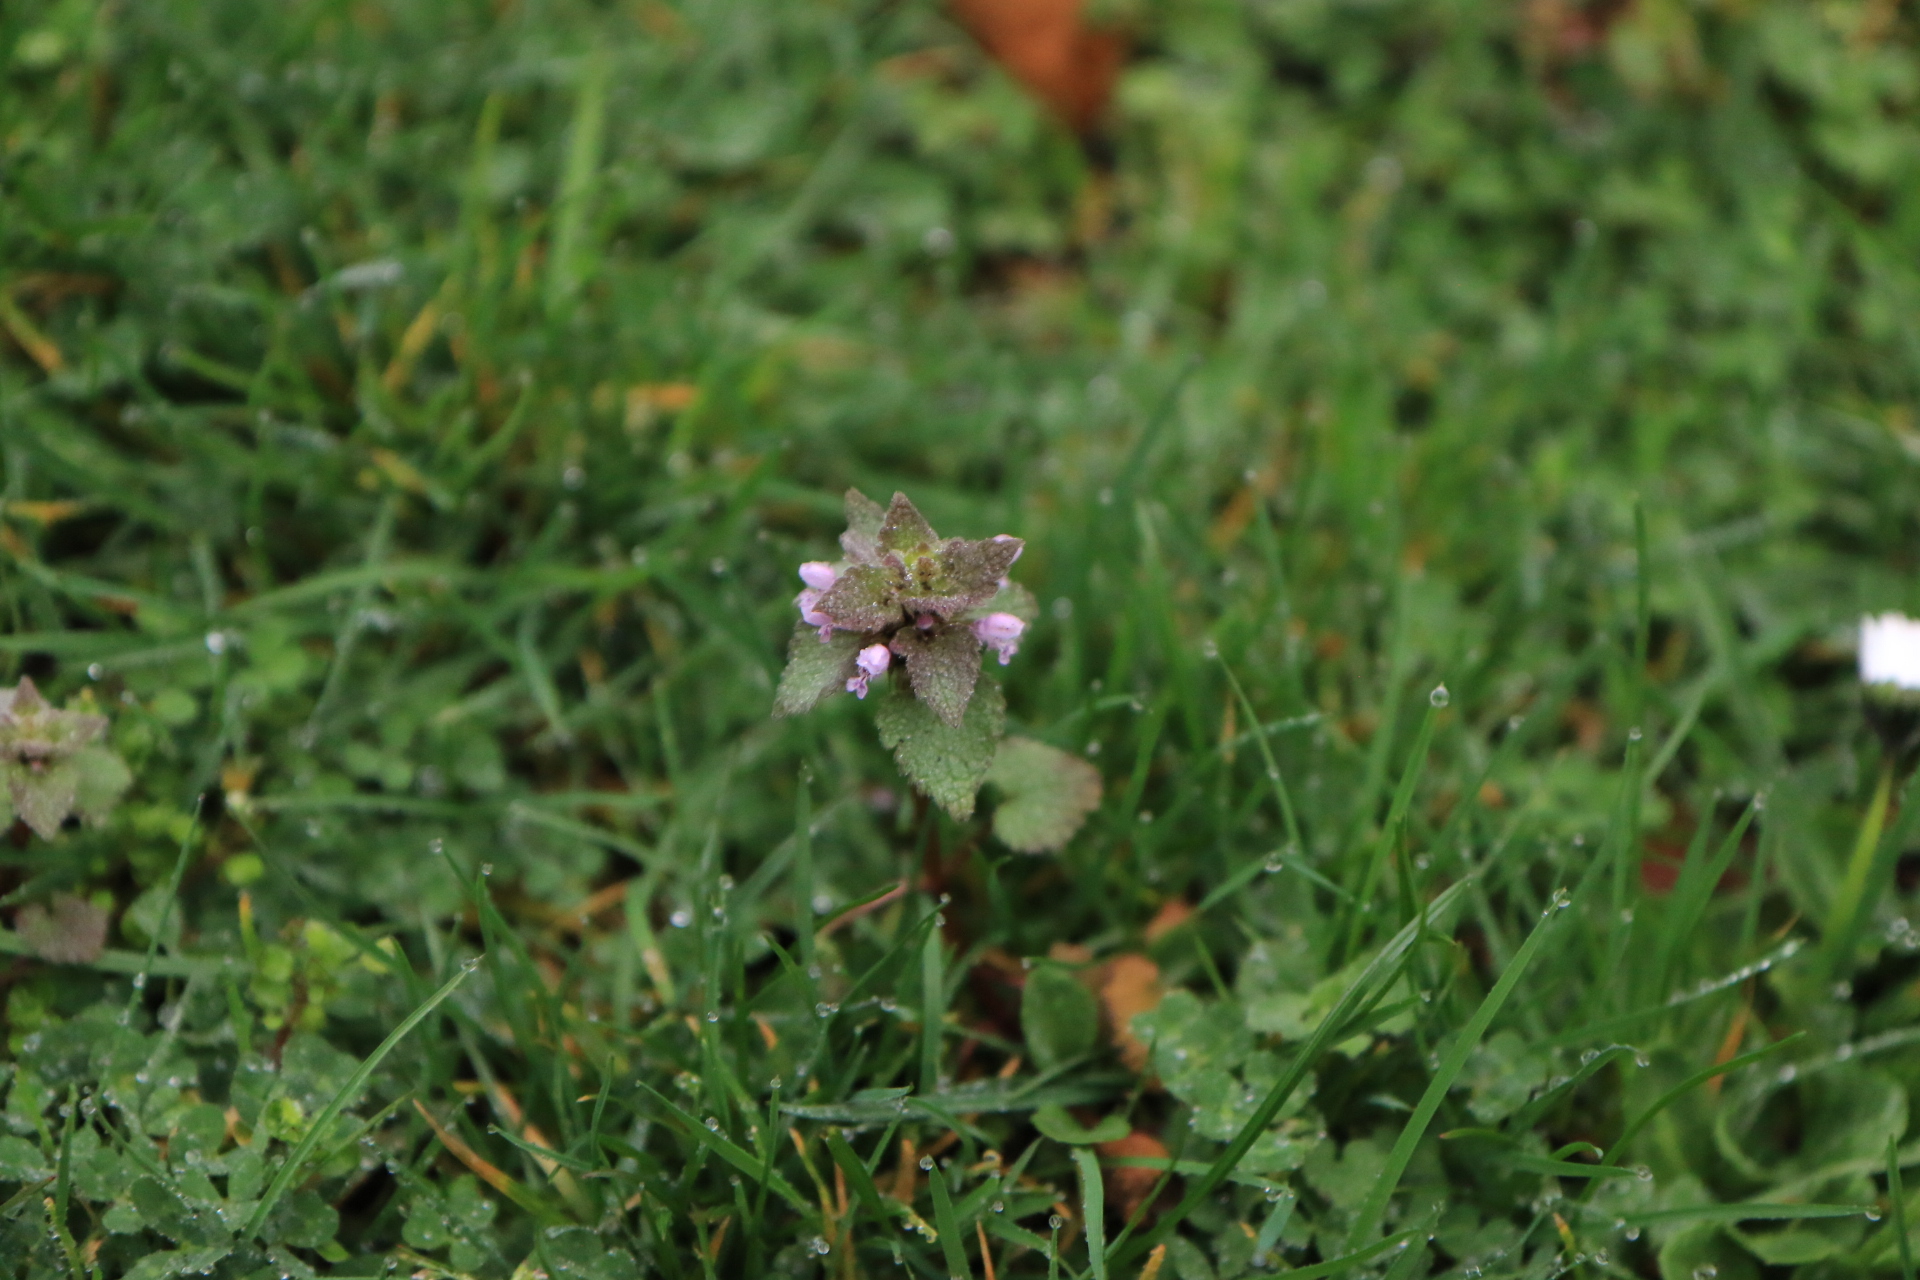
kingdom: Plantae
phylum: Tracheophyta
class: Magnoliopsida
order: Lamiales
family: Lamiaceae
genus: Lamium
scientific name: Lamium purpureum
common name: Red dead-nettle
